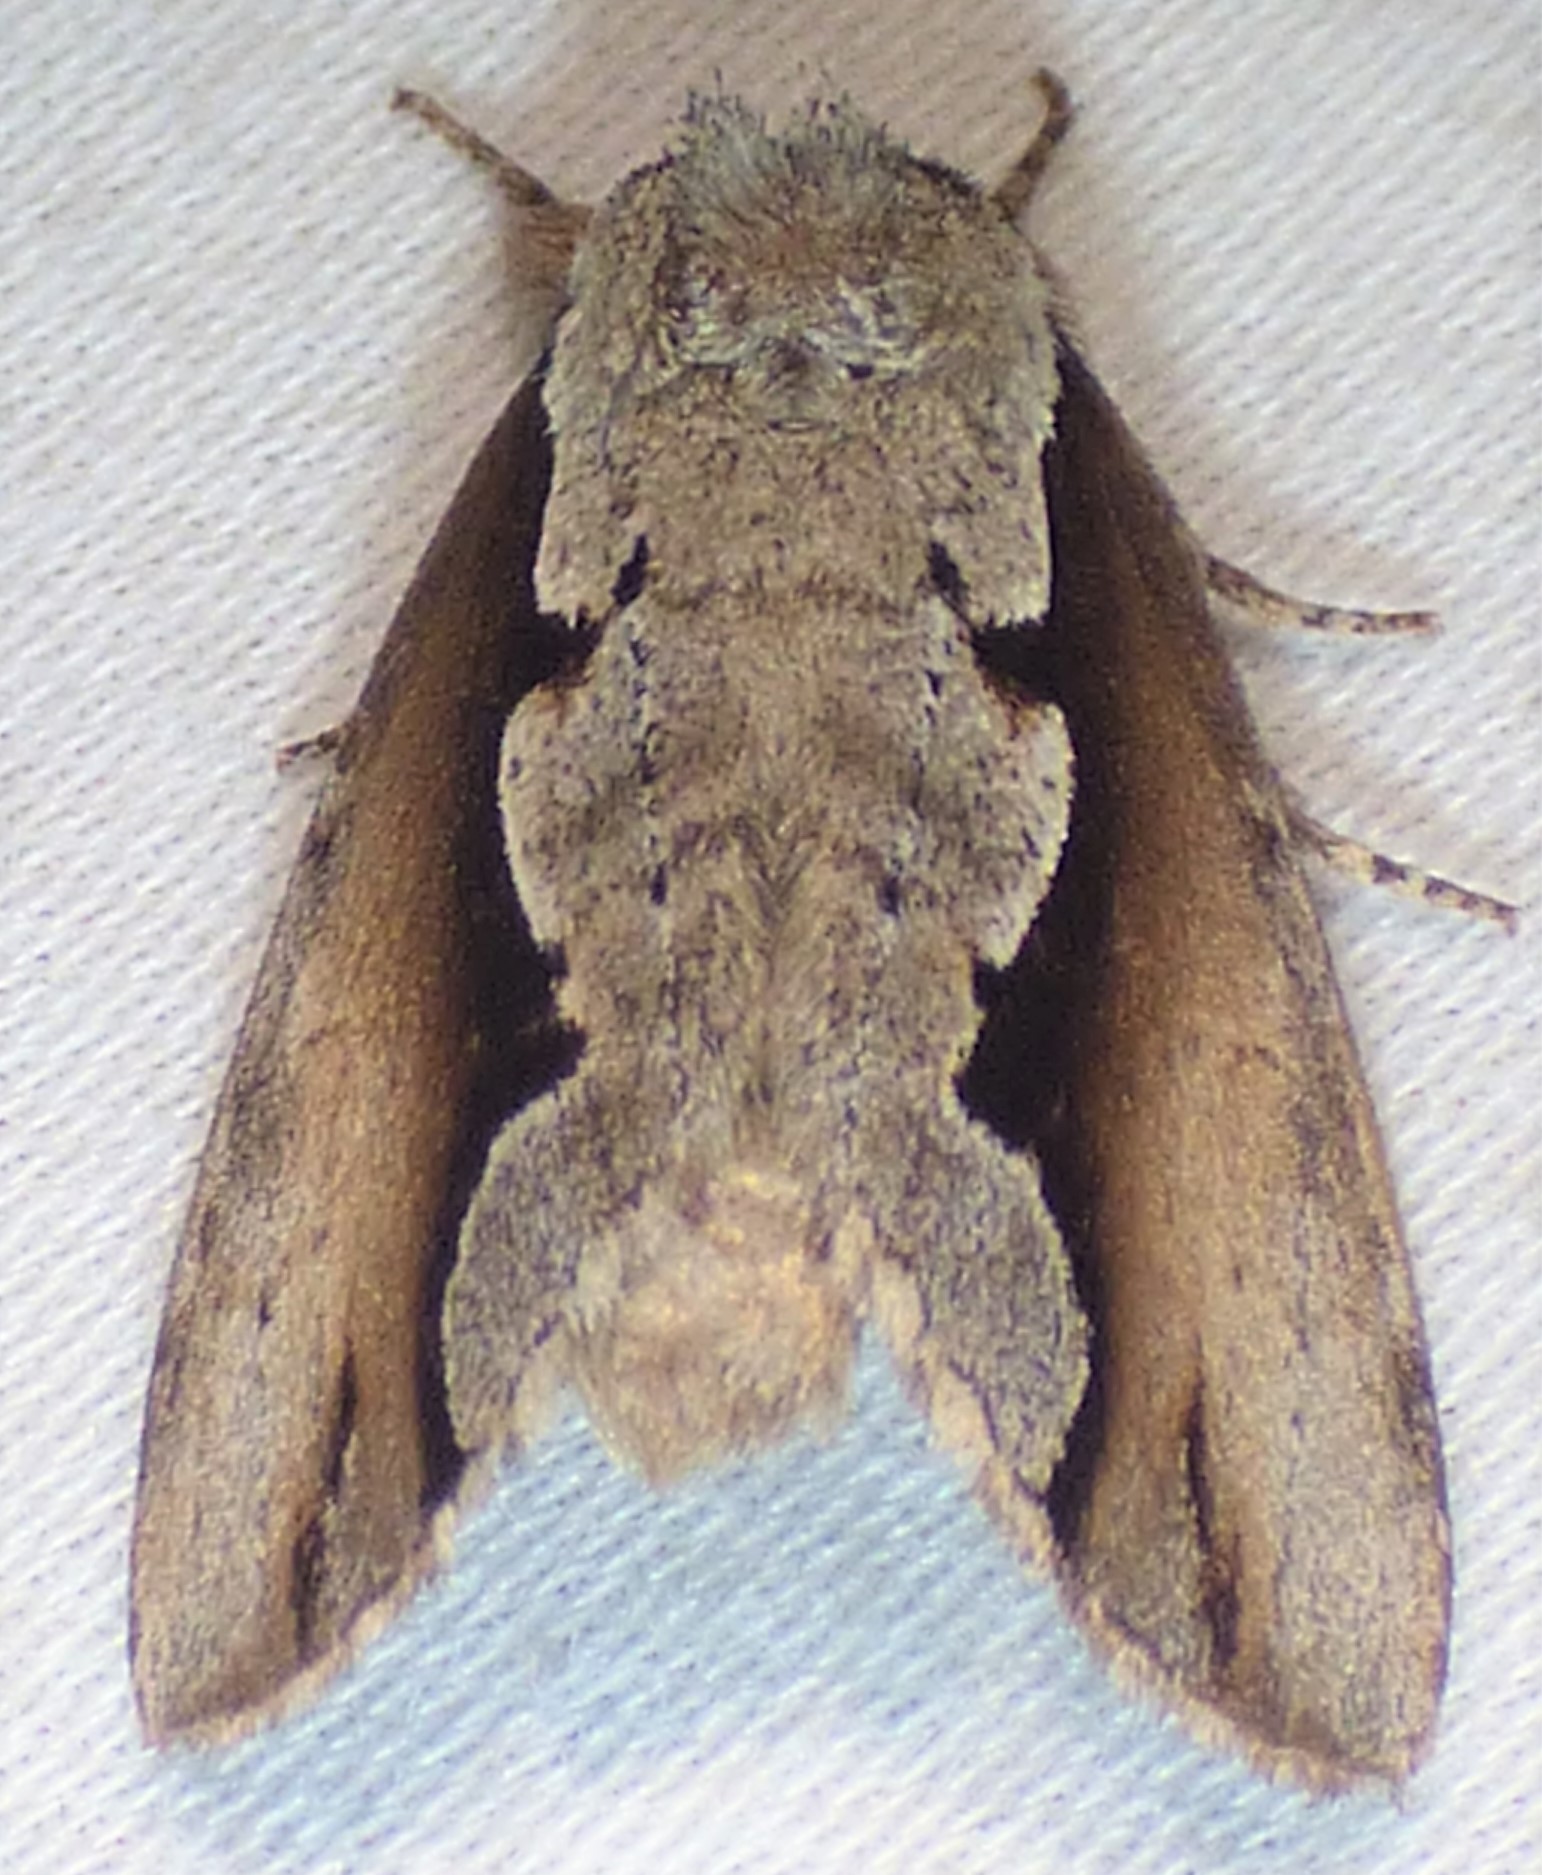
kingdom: Animalia
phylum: Arthropoda
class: Insecta
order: Lepidoptera
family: Notodontidae
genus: Nerice
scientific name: Nerice bidentata
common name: Double-toothed prominent
